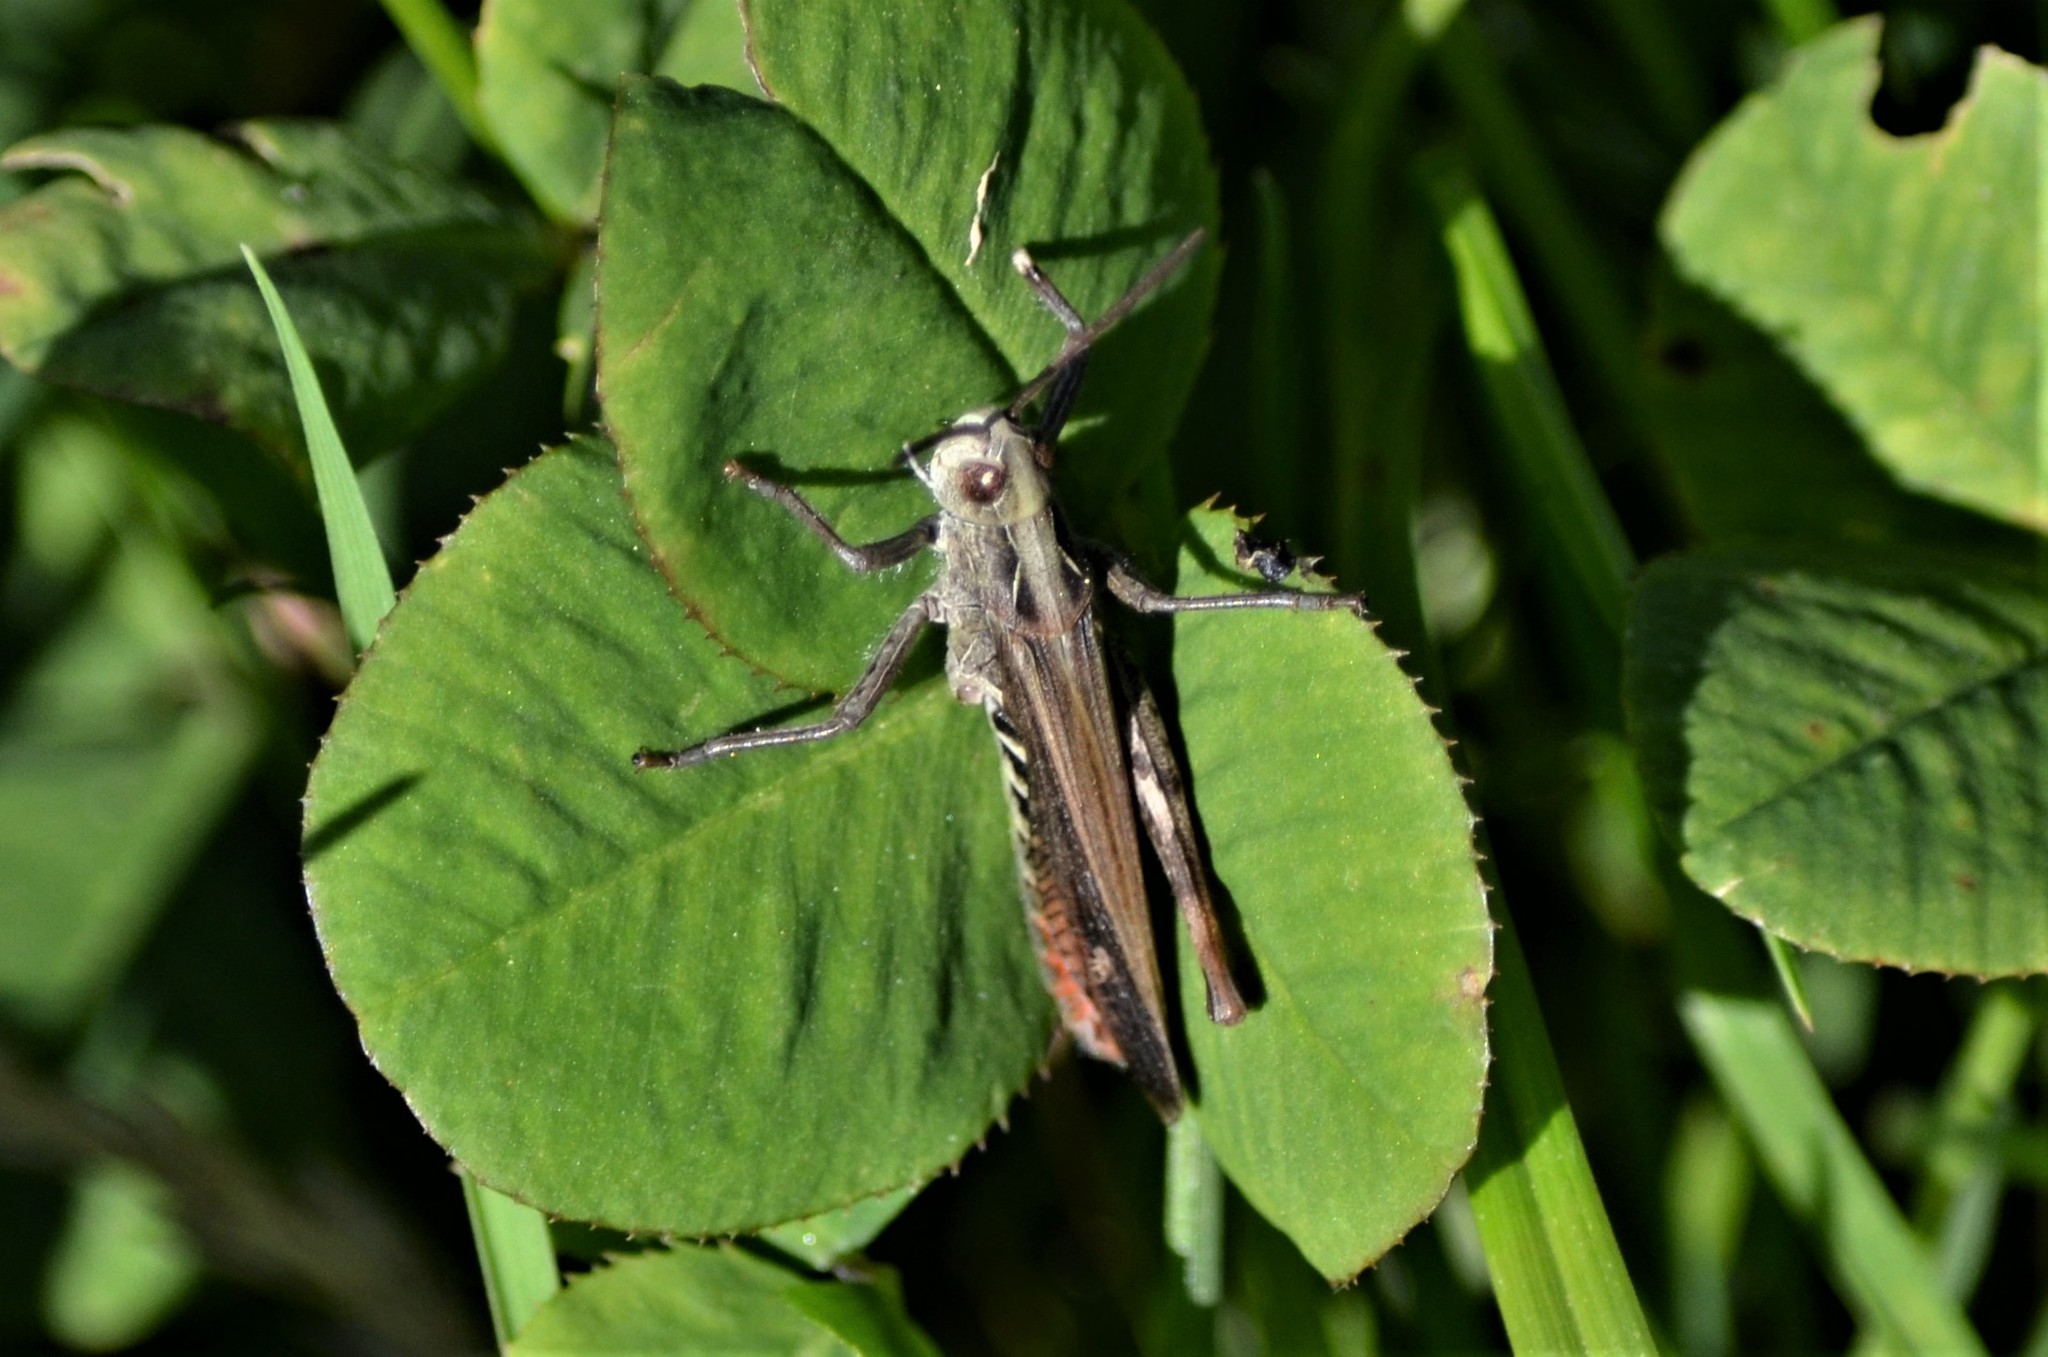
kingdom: Animalia
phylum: Arthropoda
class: Insecta
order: Orthoptera
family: Acrididae
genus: Chorthippus
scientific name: Chorthippus biguttulus
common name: Bow-winged grasshopper
